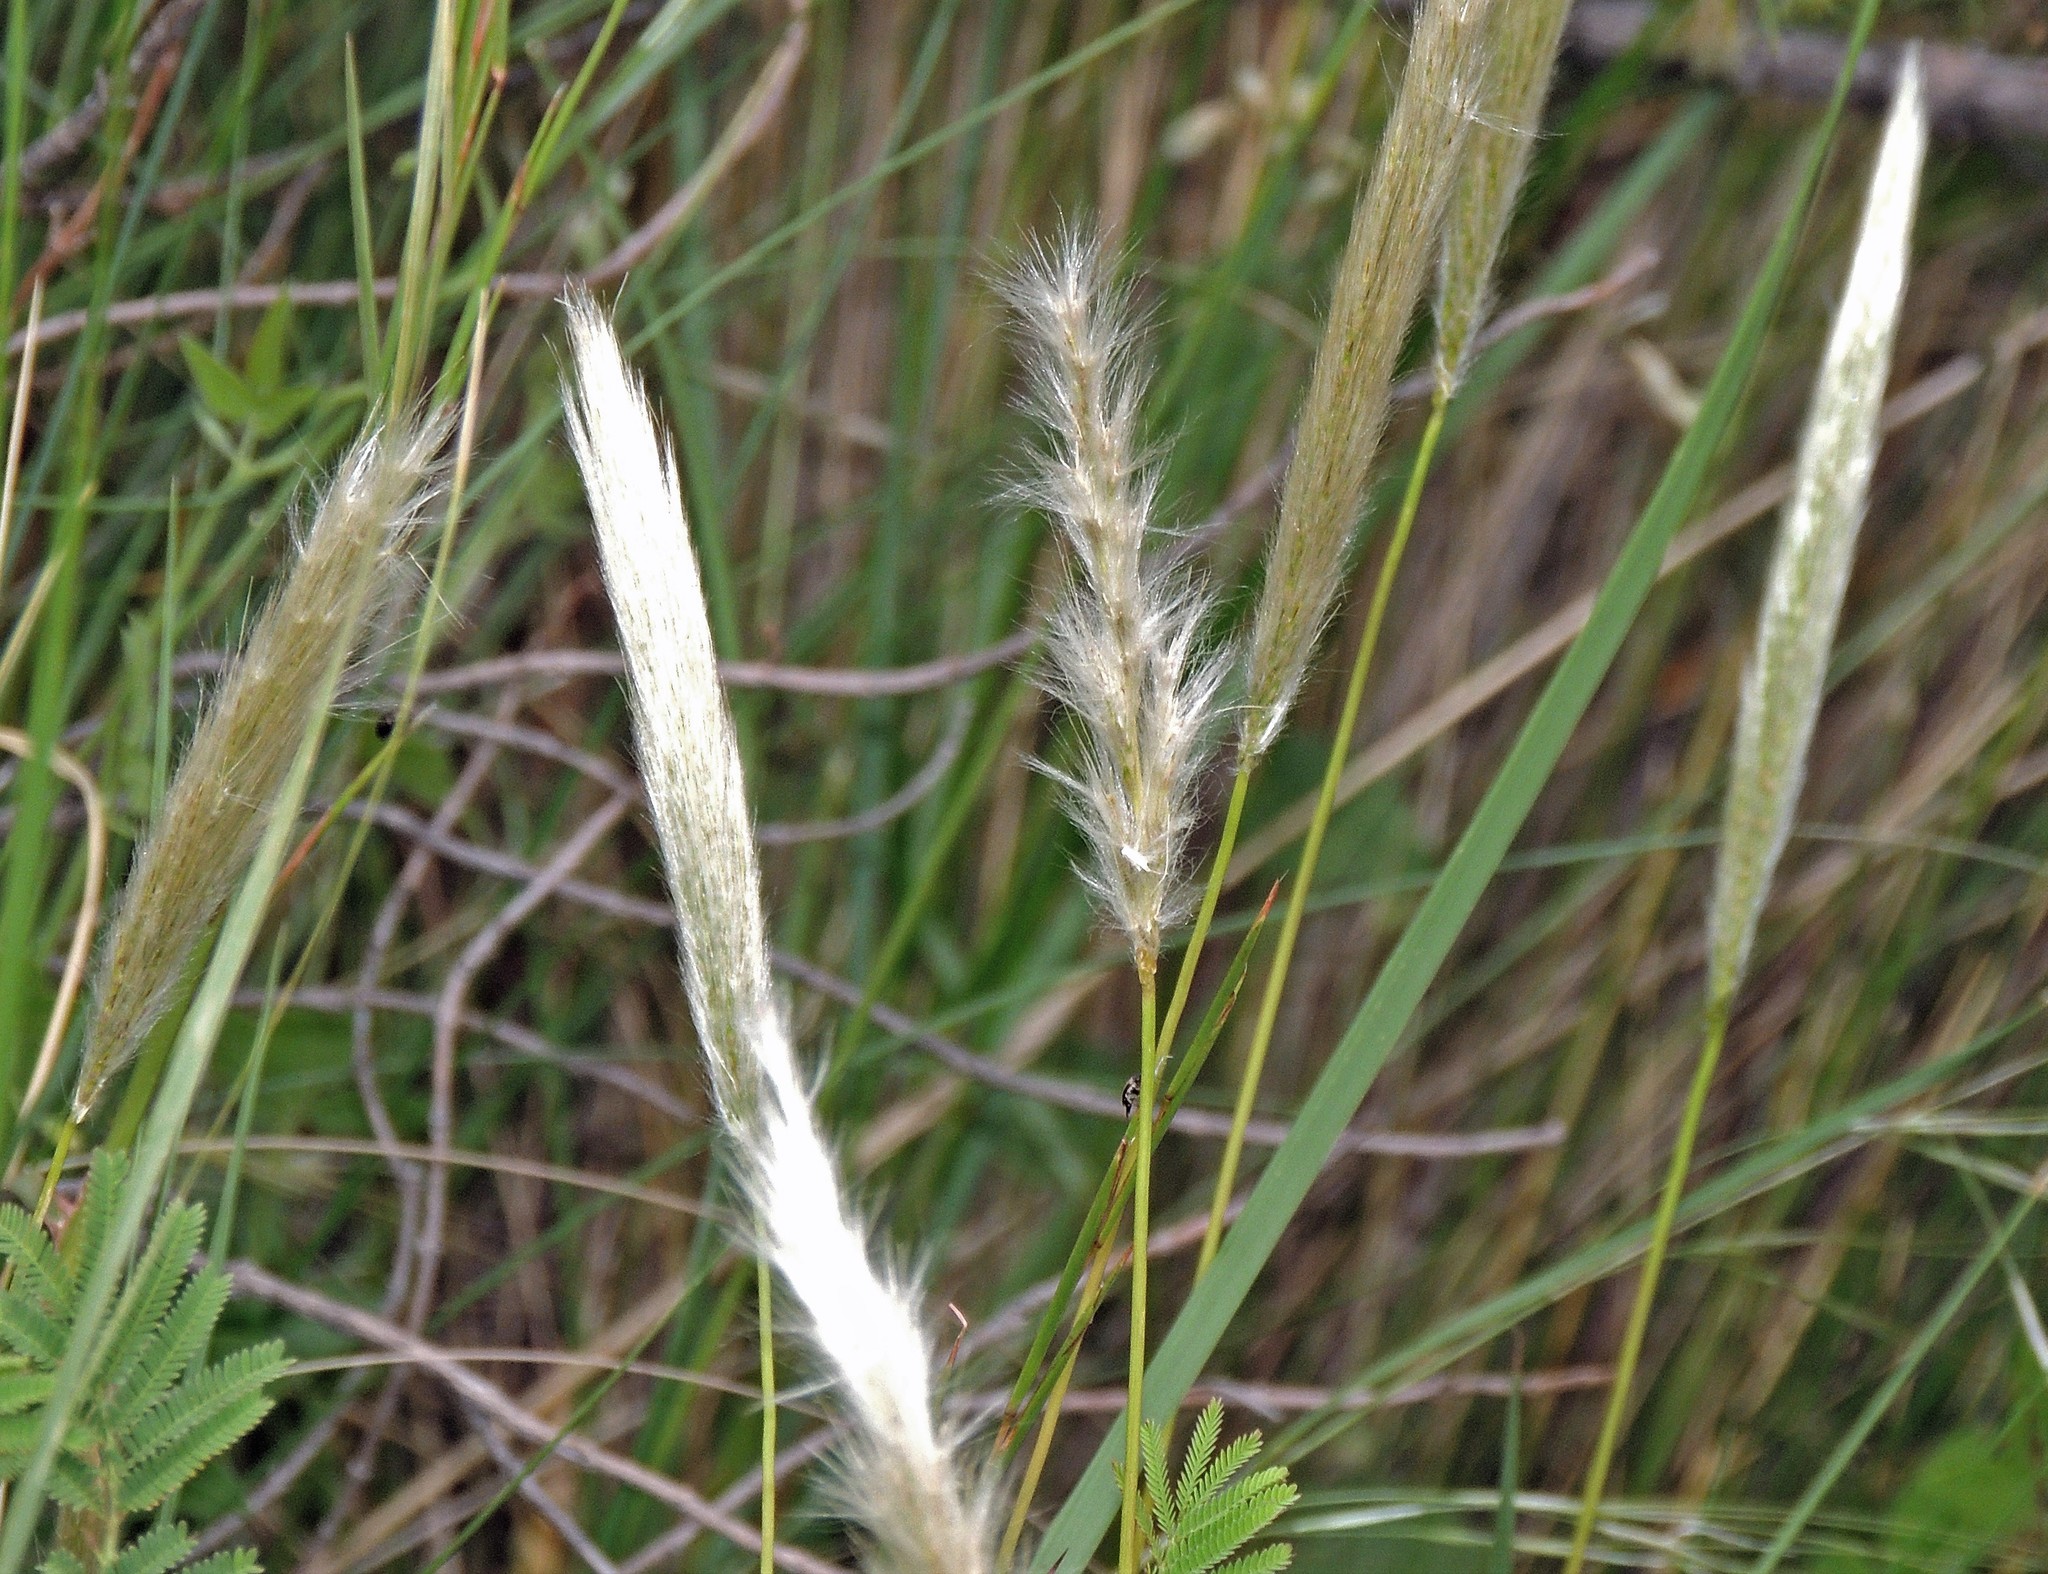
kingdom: Plantae
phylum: Tracheophyta
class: Liliopsida
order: Poales
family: Poaceae
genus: Bothriochloa
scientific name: Bothriochloa laguroides
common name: Silver bluestem
